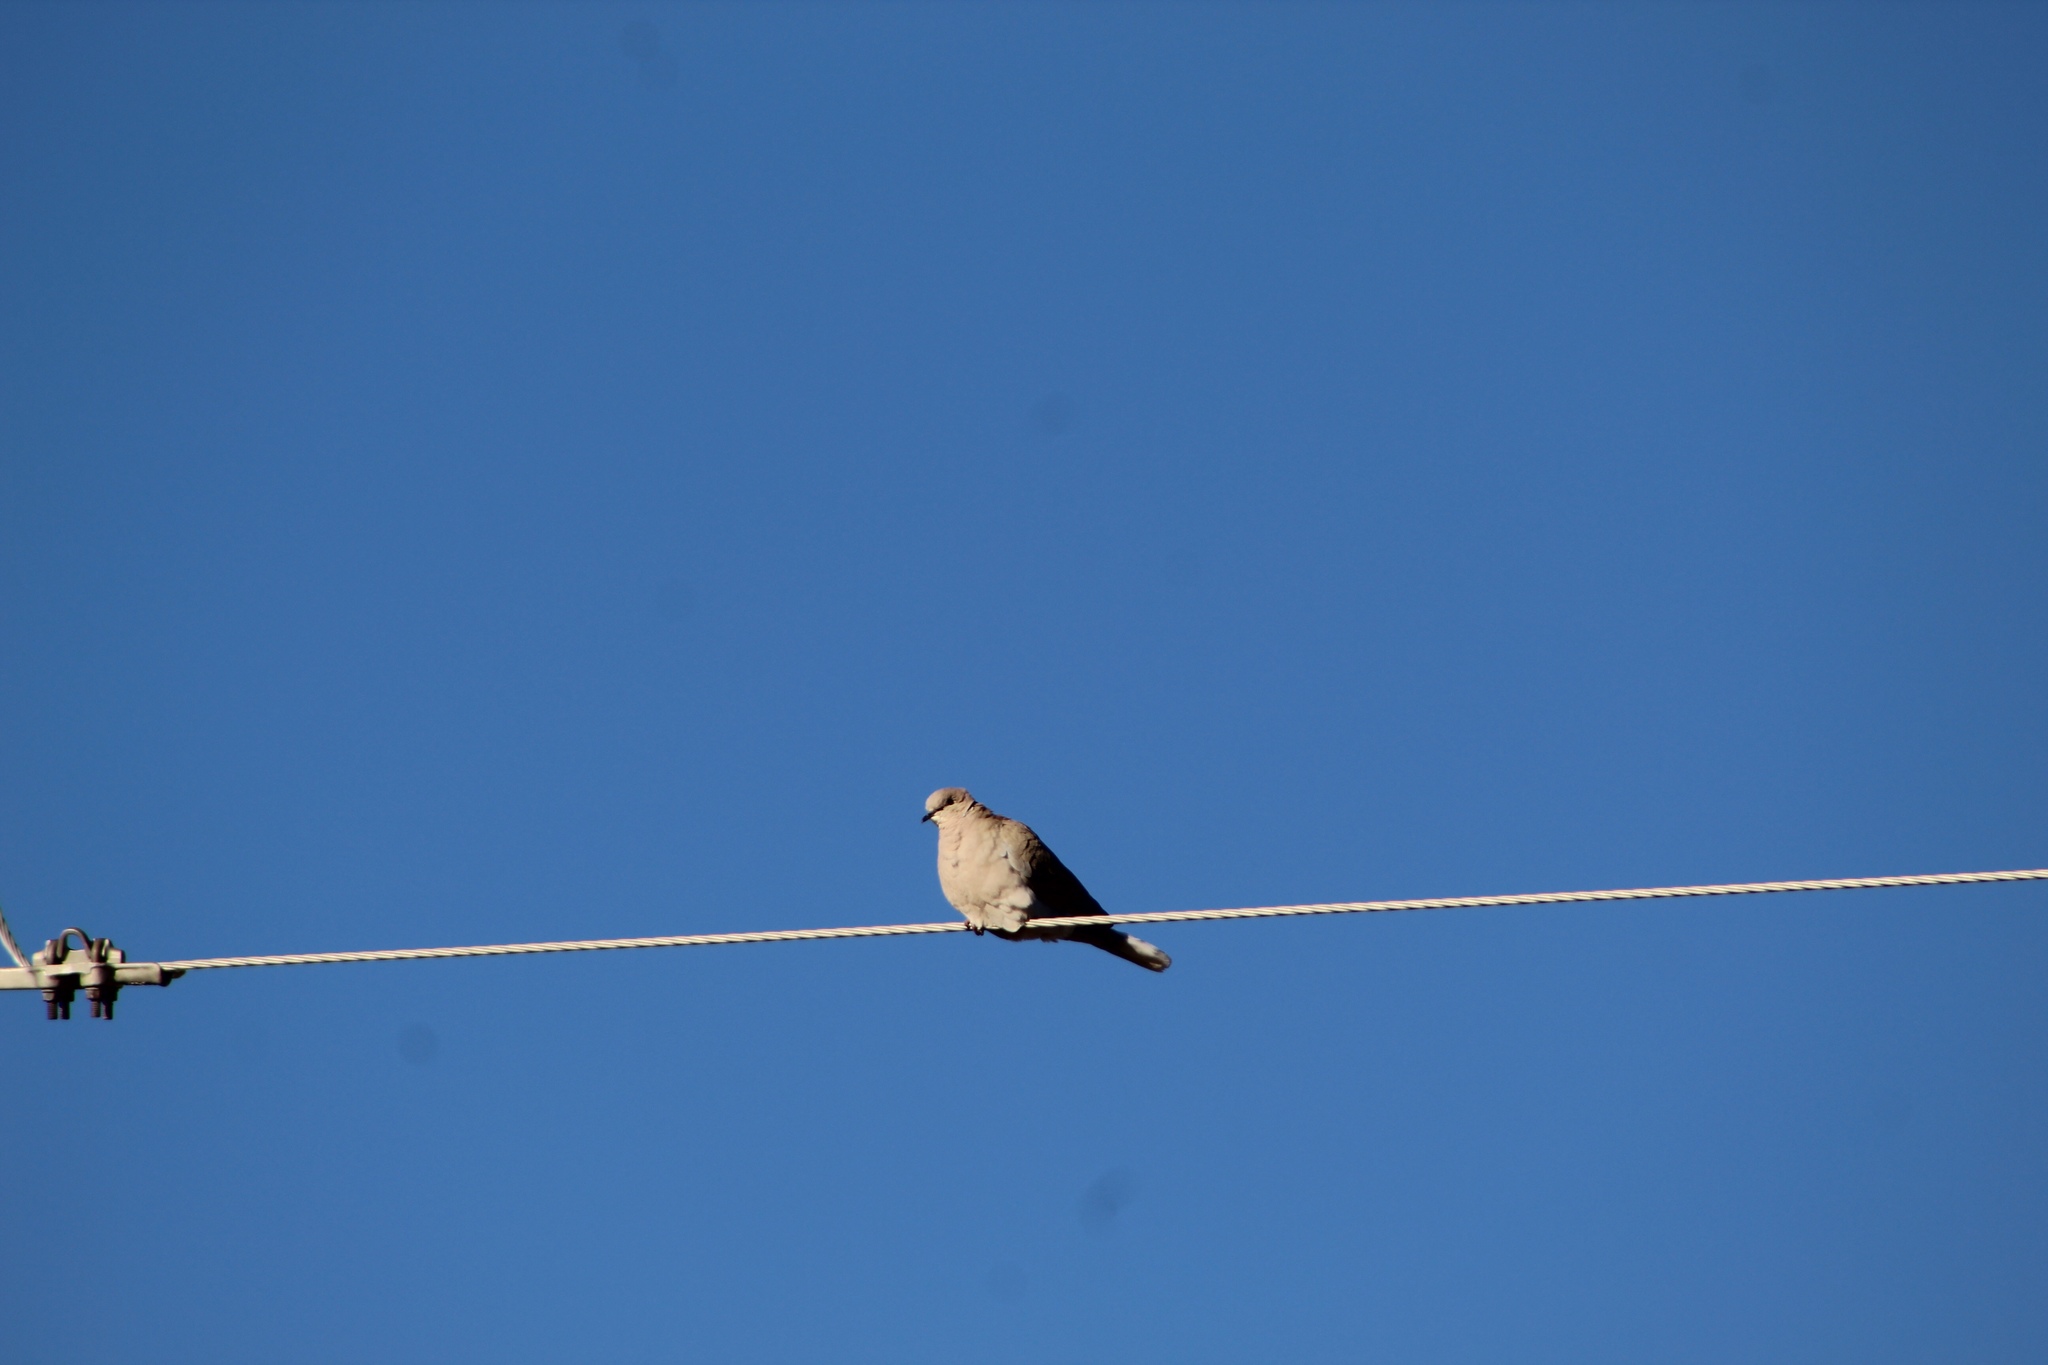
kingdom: Animalia
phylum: Chordata
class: Aves
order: Columbiformes
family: Columbidae
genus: Streptopelia
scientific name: Streptopelia decaocto
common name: Eurasian collared dove
